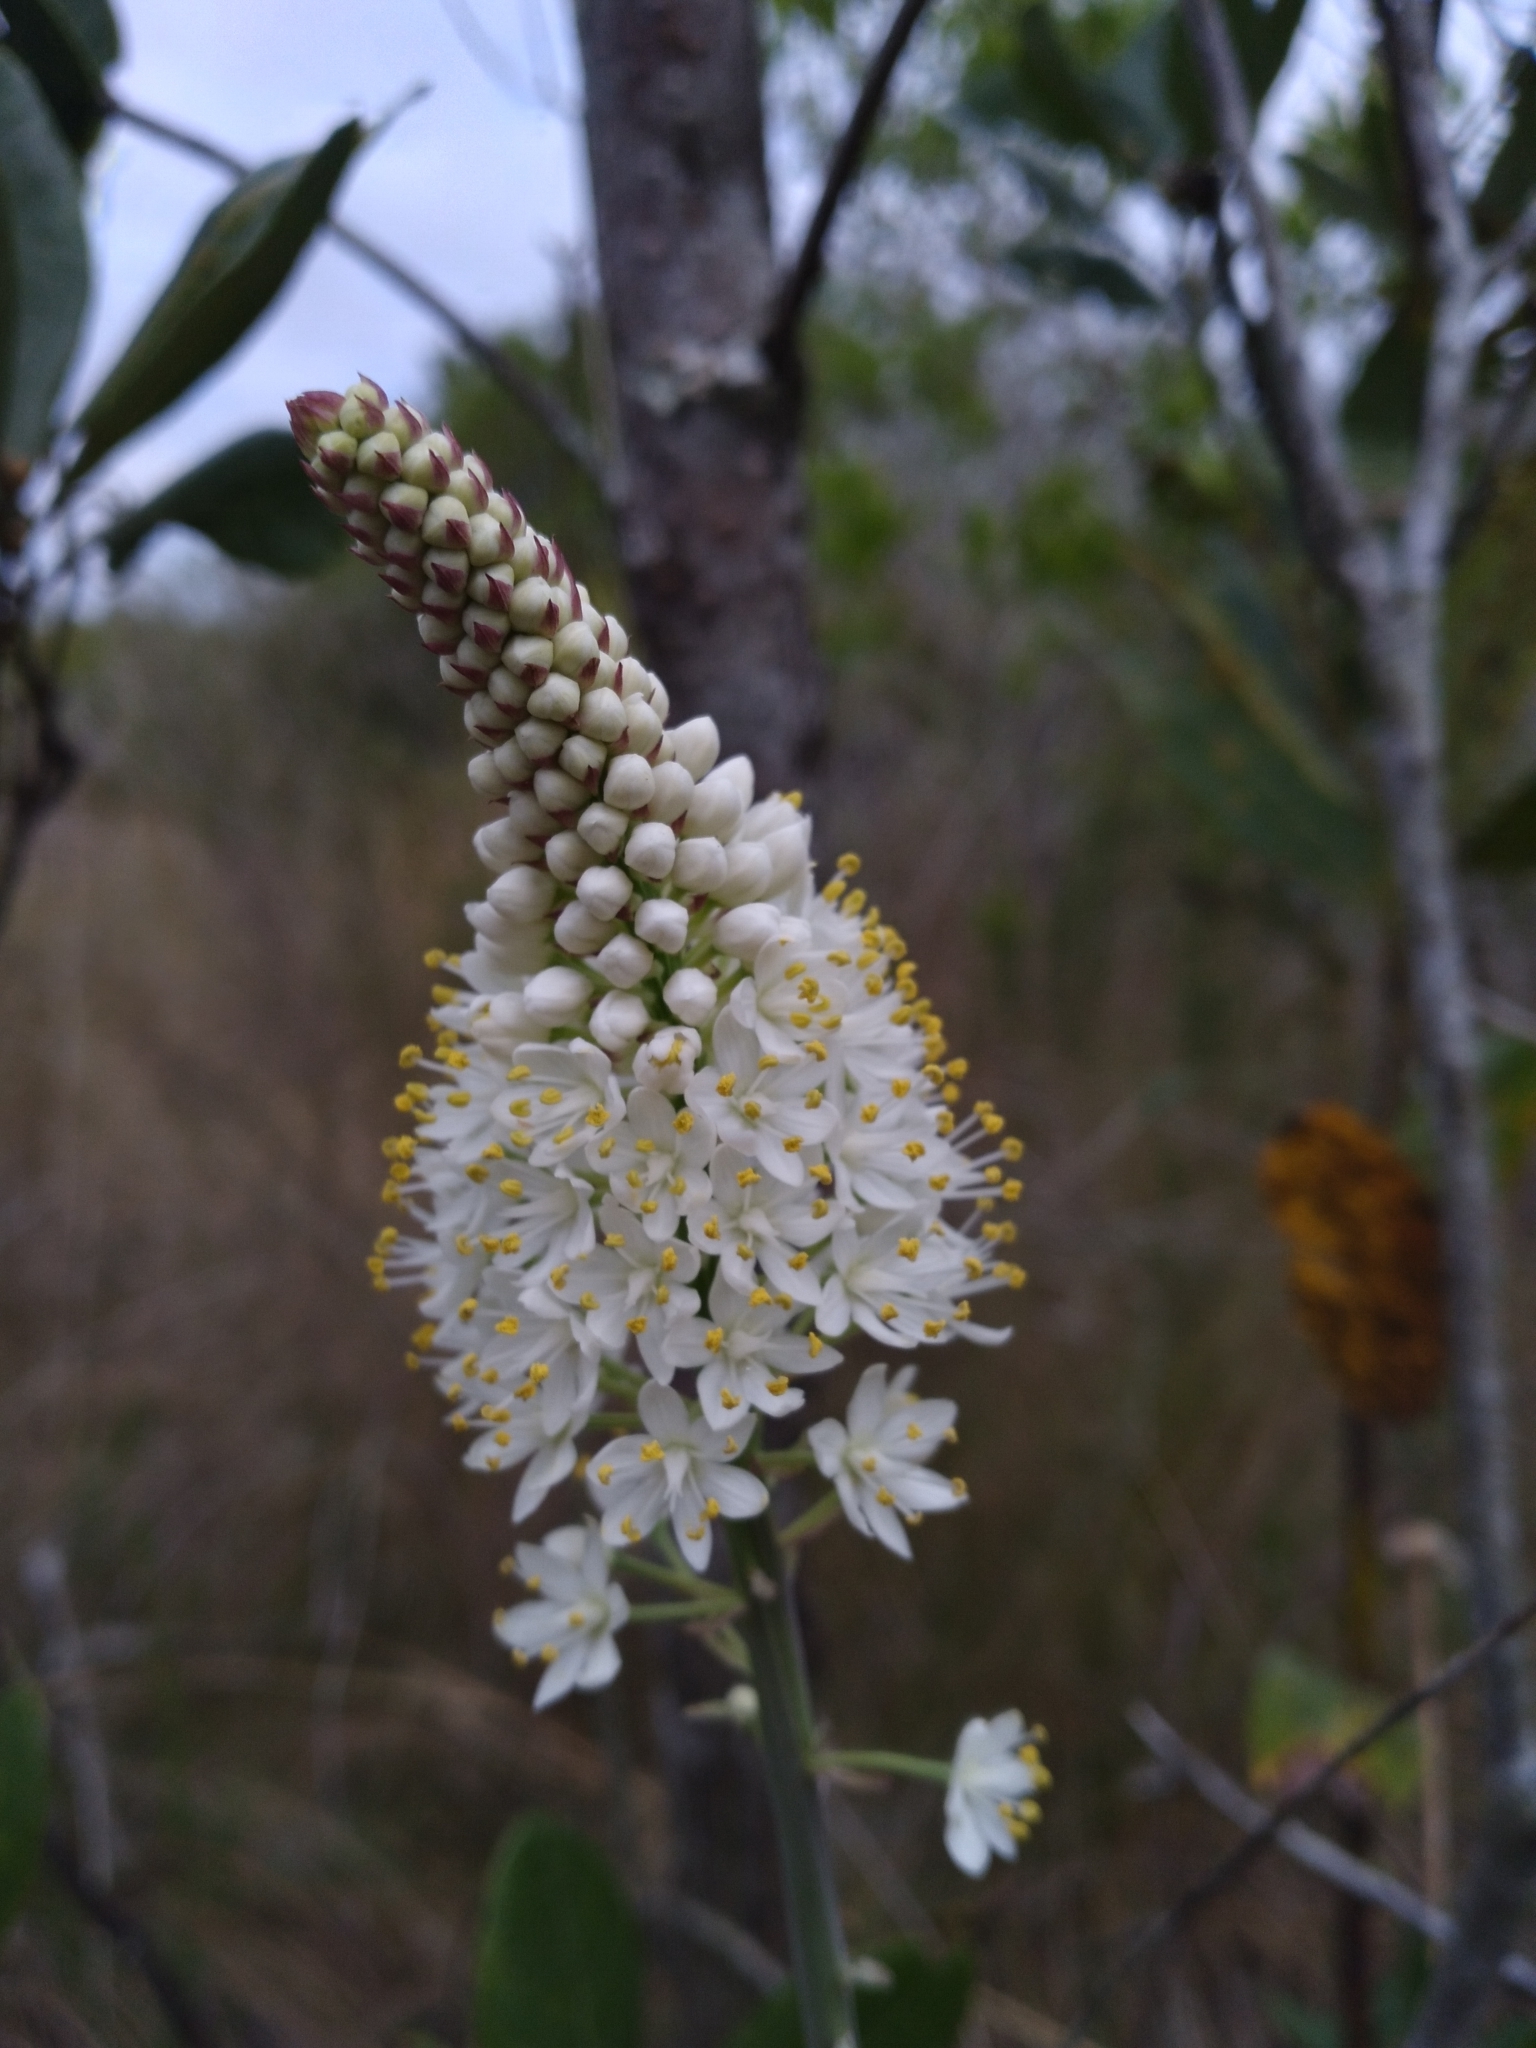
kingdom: Plantae
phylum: Tracheophyta
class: Liliopsida
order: Liliales
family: Melanthiaceae
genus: Stenanthium
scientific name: Stenanthium densum
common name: Crow-poison
